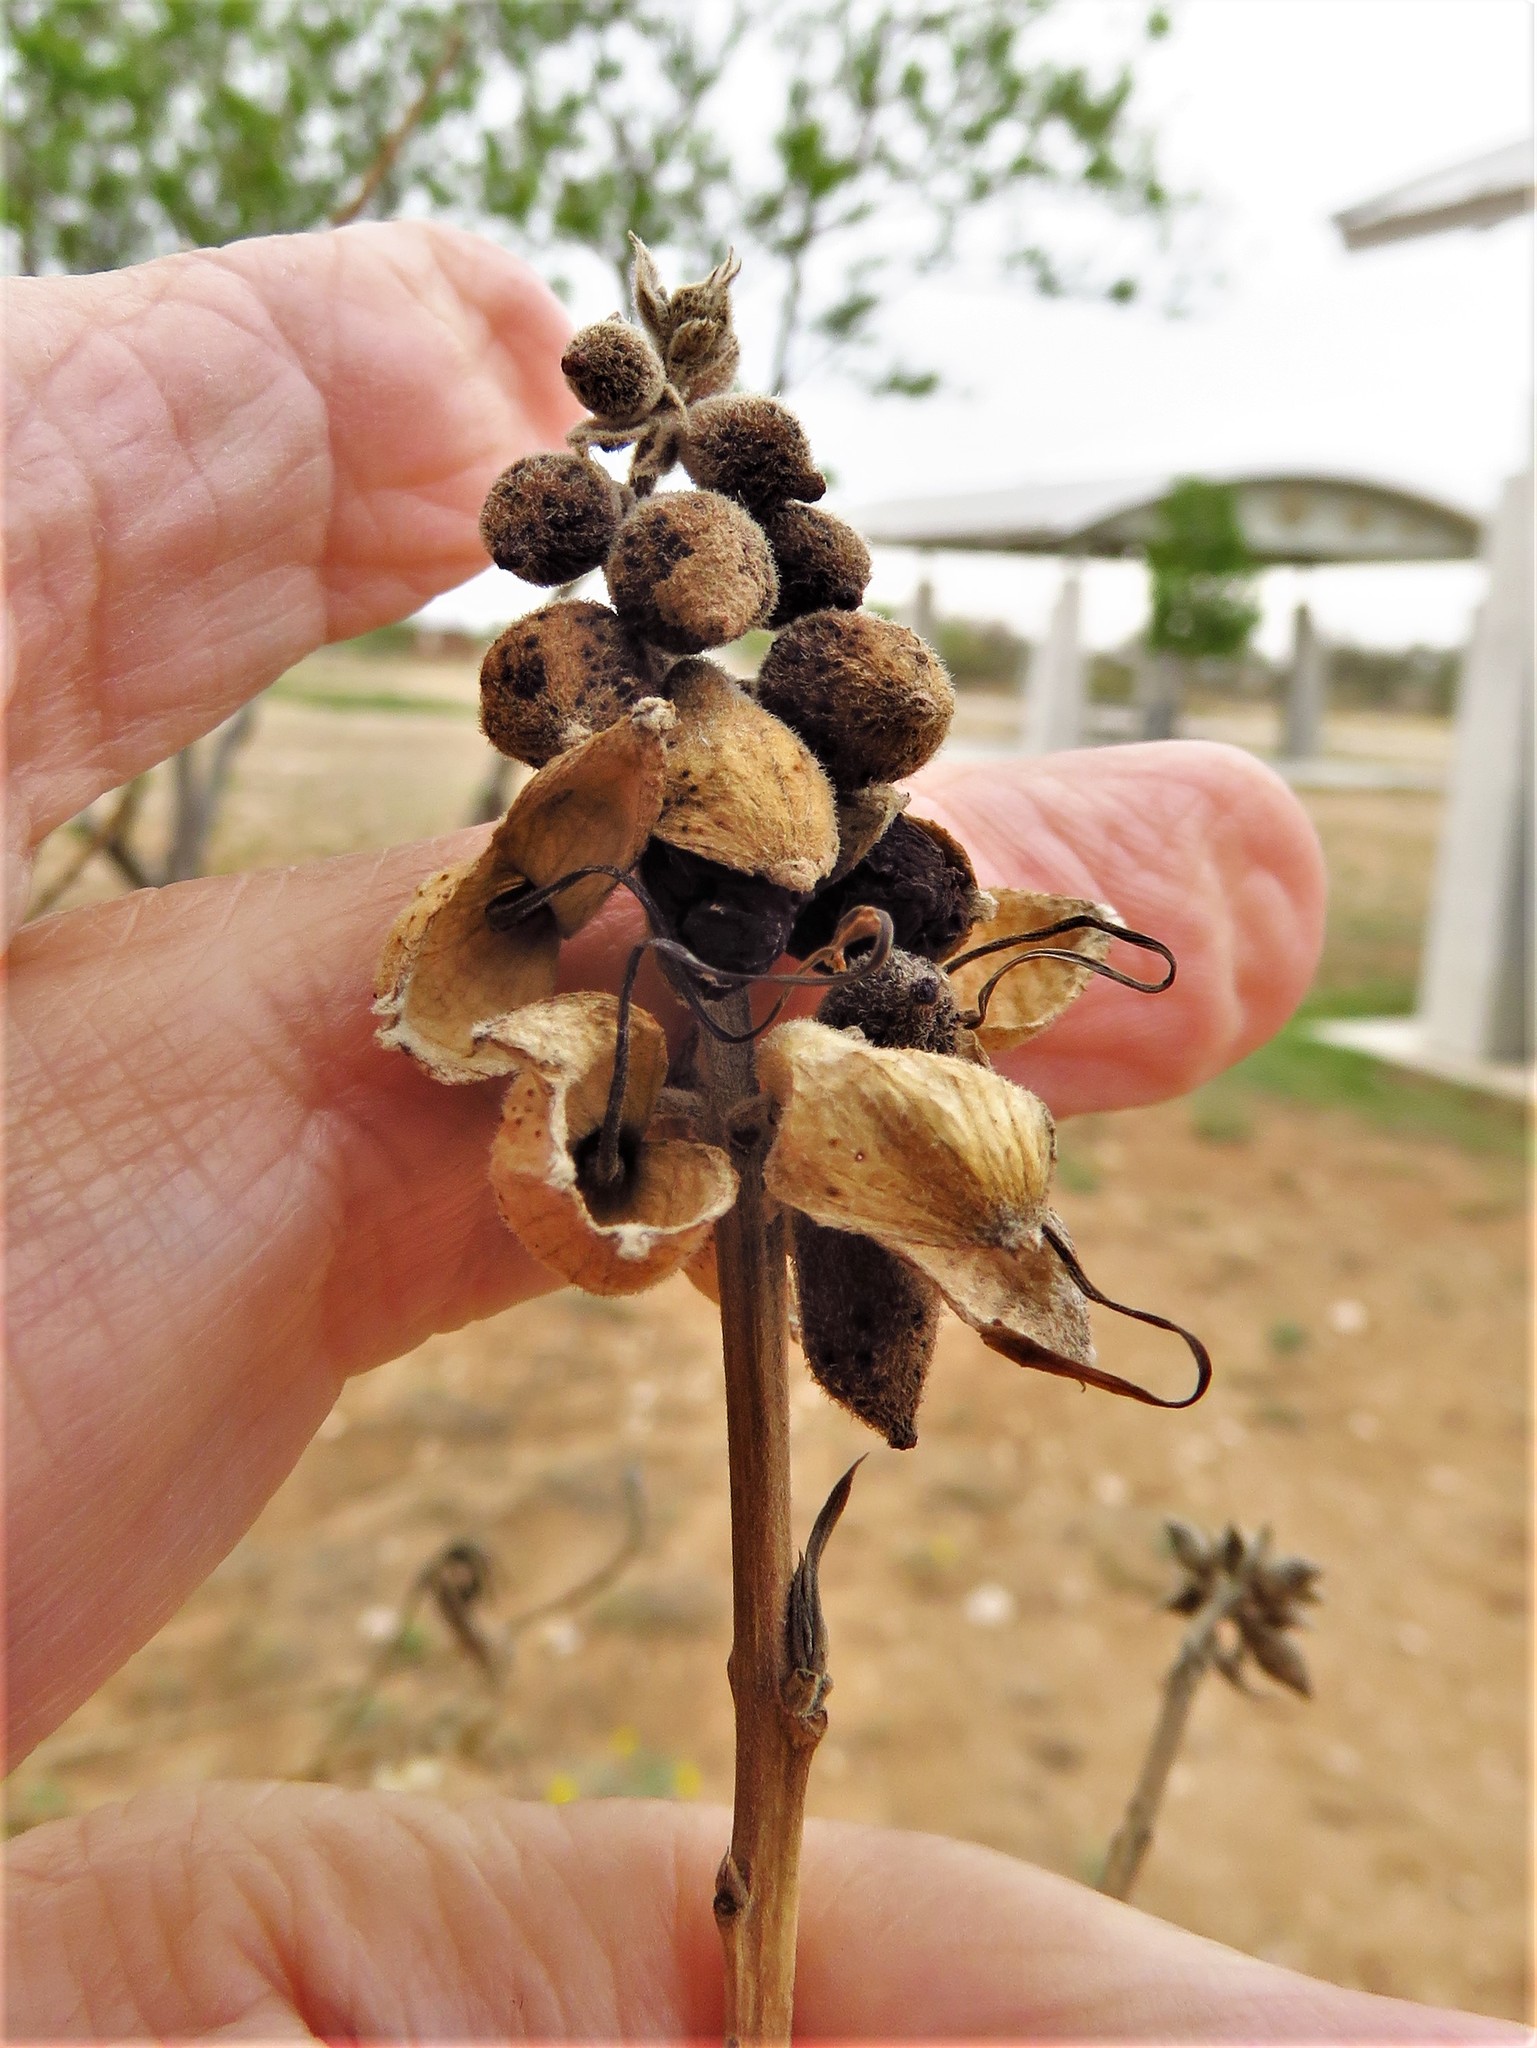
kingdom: Plantae
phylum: Tracheophyta
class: Magnoliopsida
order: Lamiales
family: Bignoniaceae
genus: Chilopsis
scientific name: Chilopsis linearis
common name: Desert-willow
